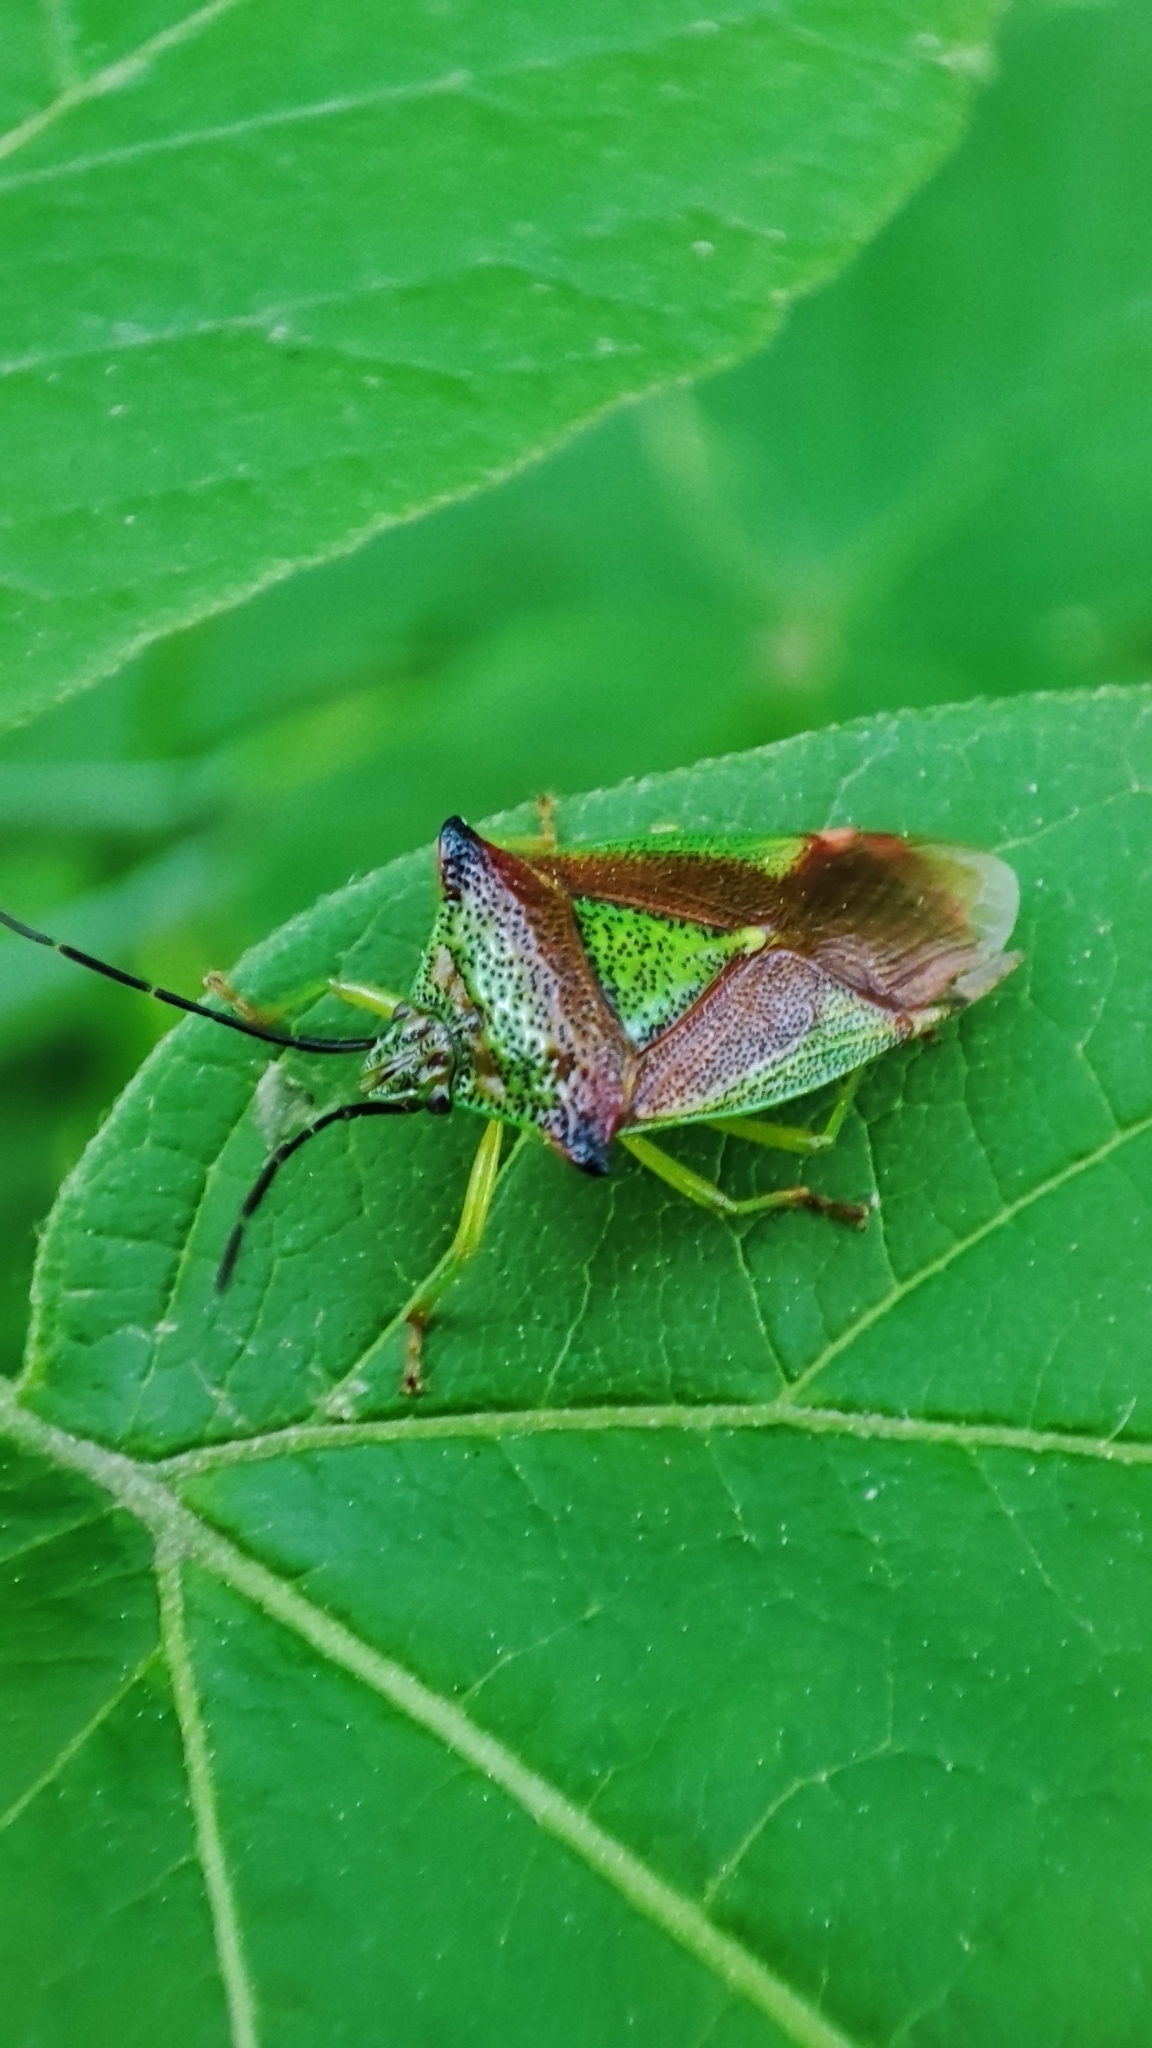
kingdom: Animalia
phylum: Arthropoda
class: Insecta
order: Hemiptera
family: Acanthosomatidae
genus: Acanthosoma
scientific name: Acanthosoma haemorrhoidale
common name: Hawthorn shieldbug
